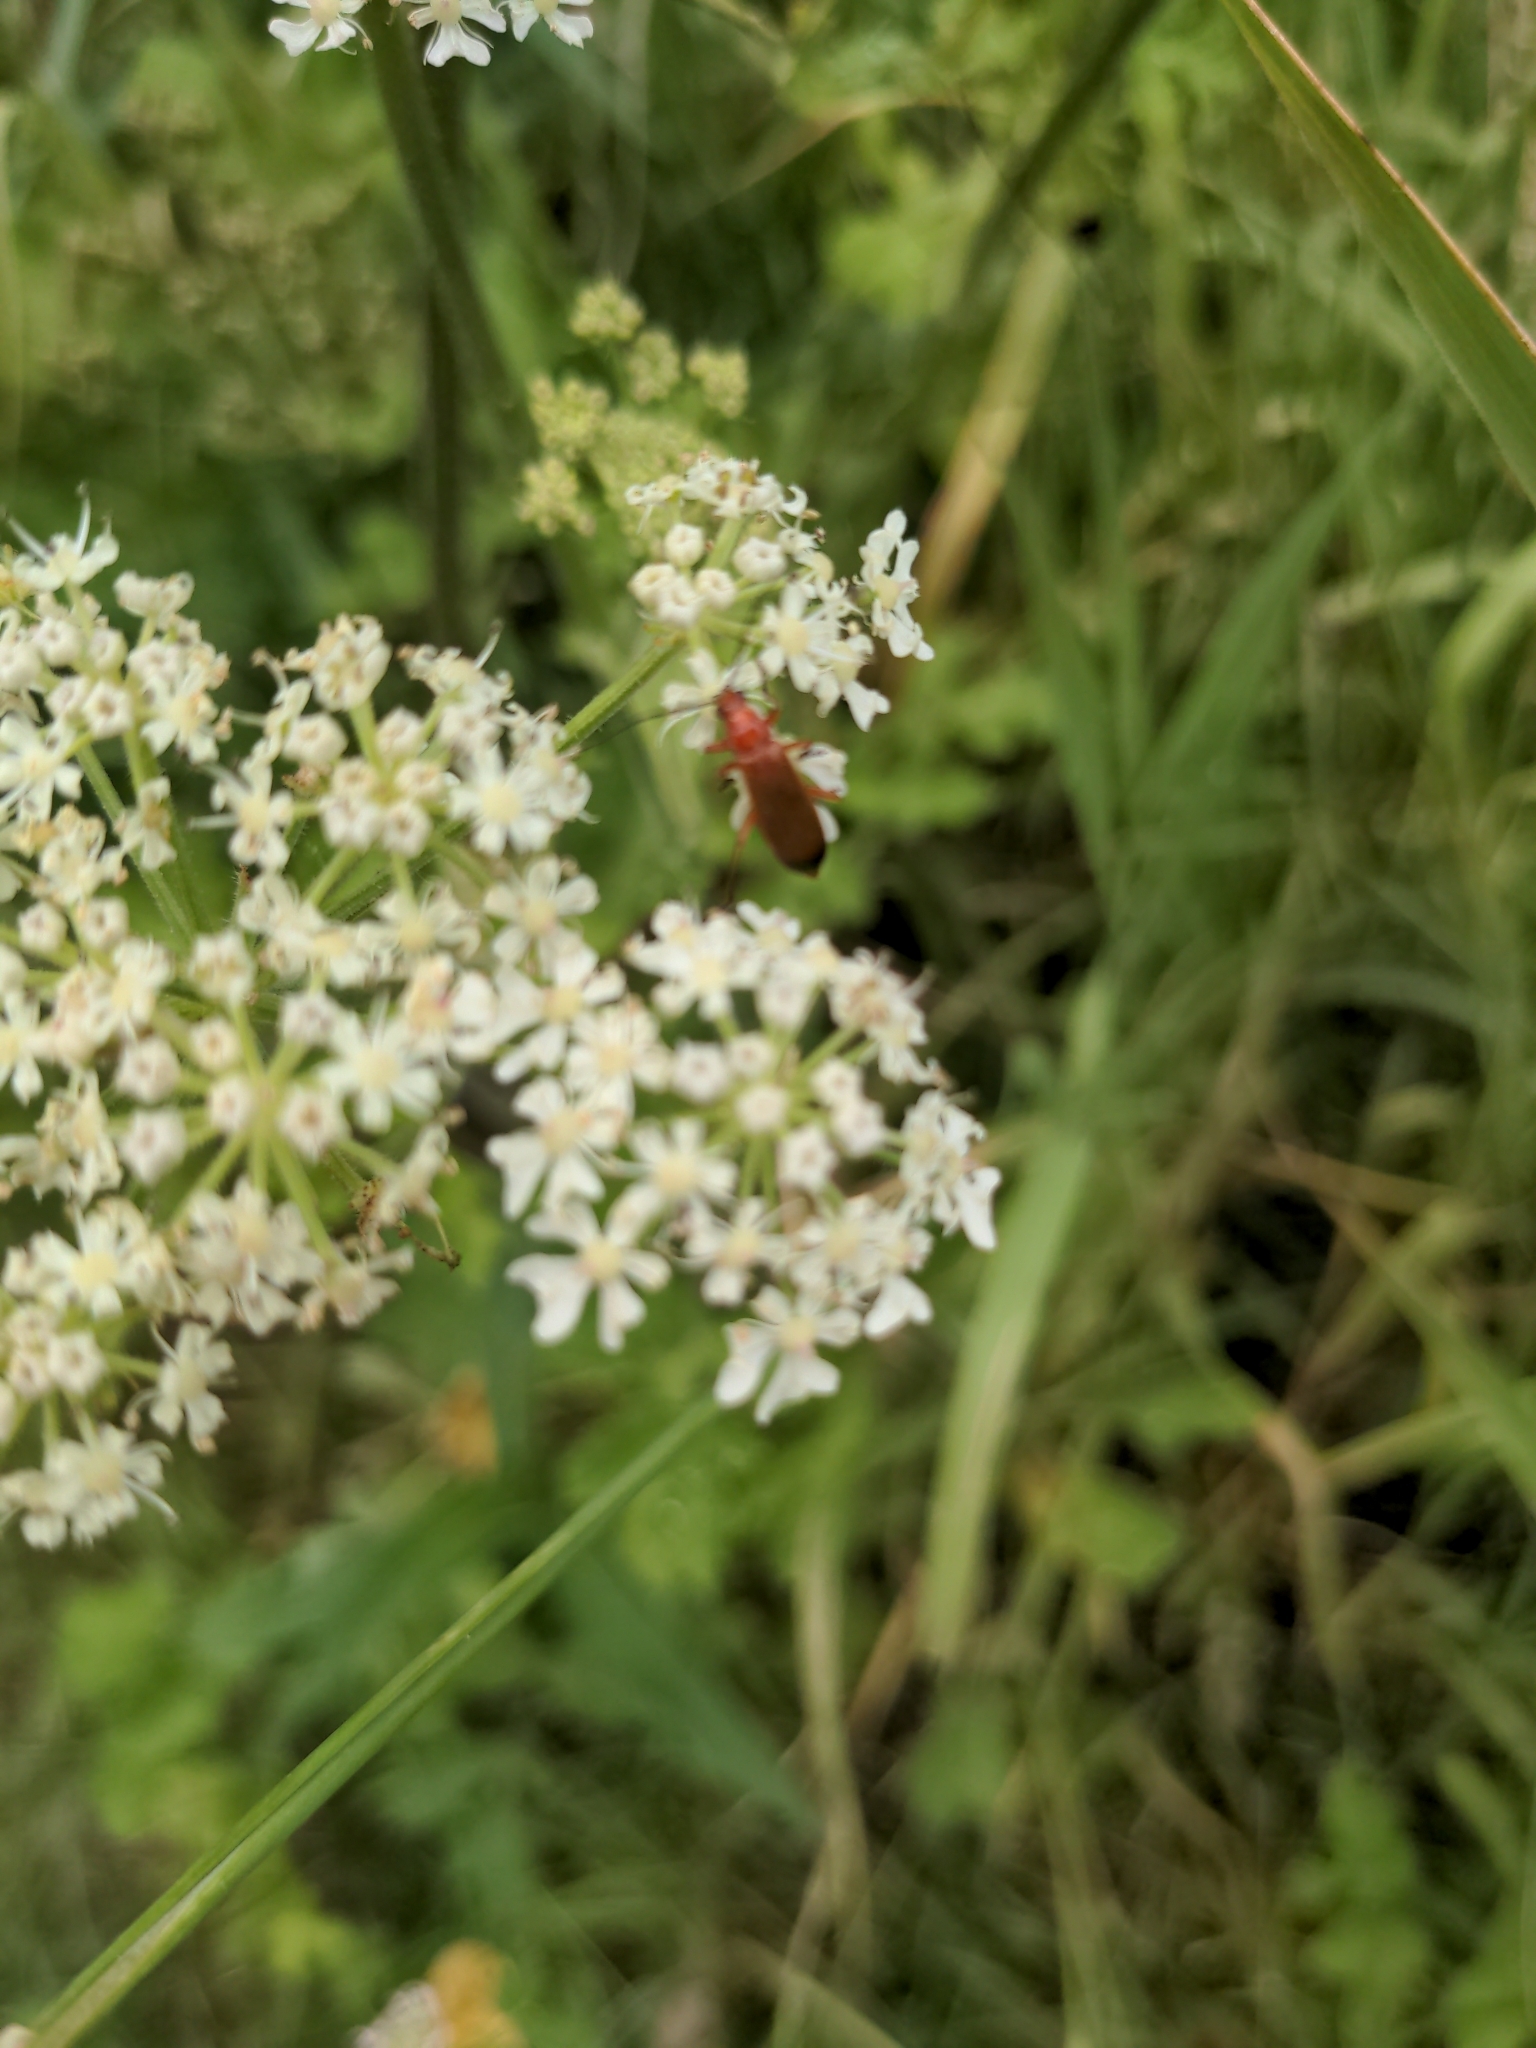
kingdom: Animalia
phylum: Arthropoda
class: Insecta
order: Coleoptera
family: Cantharidae
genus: Rhagonycha
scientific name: Rhagonycha fulva
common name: Common red soldier beetle
